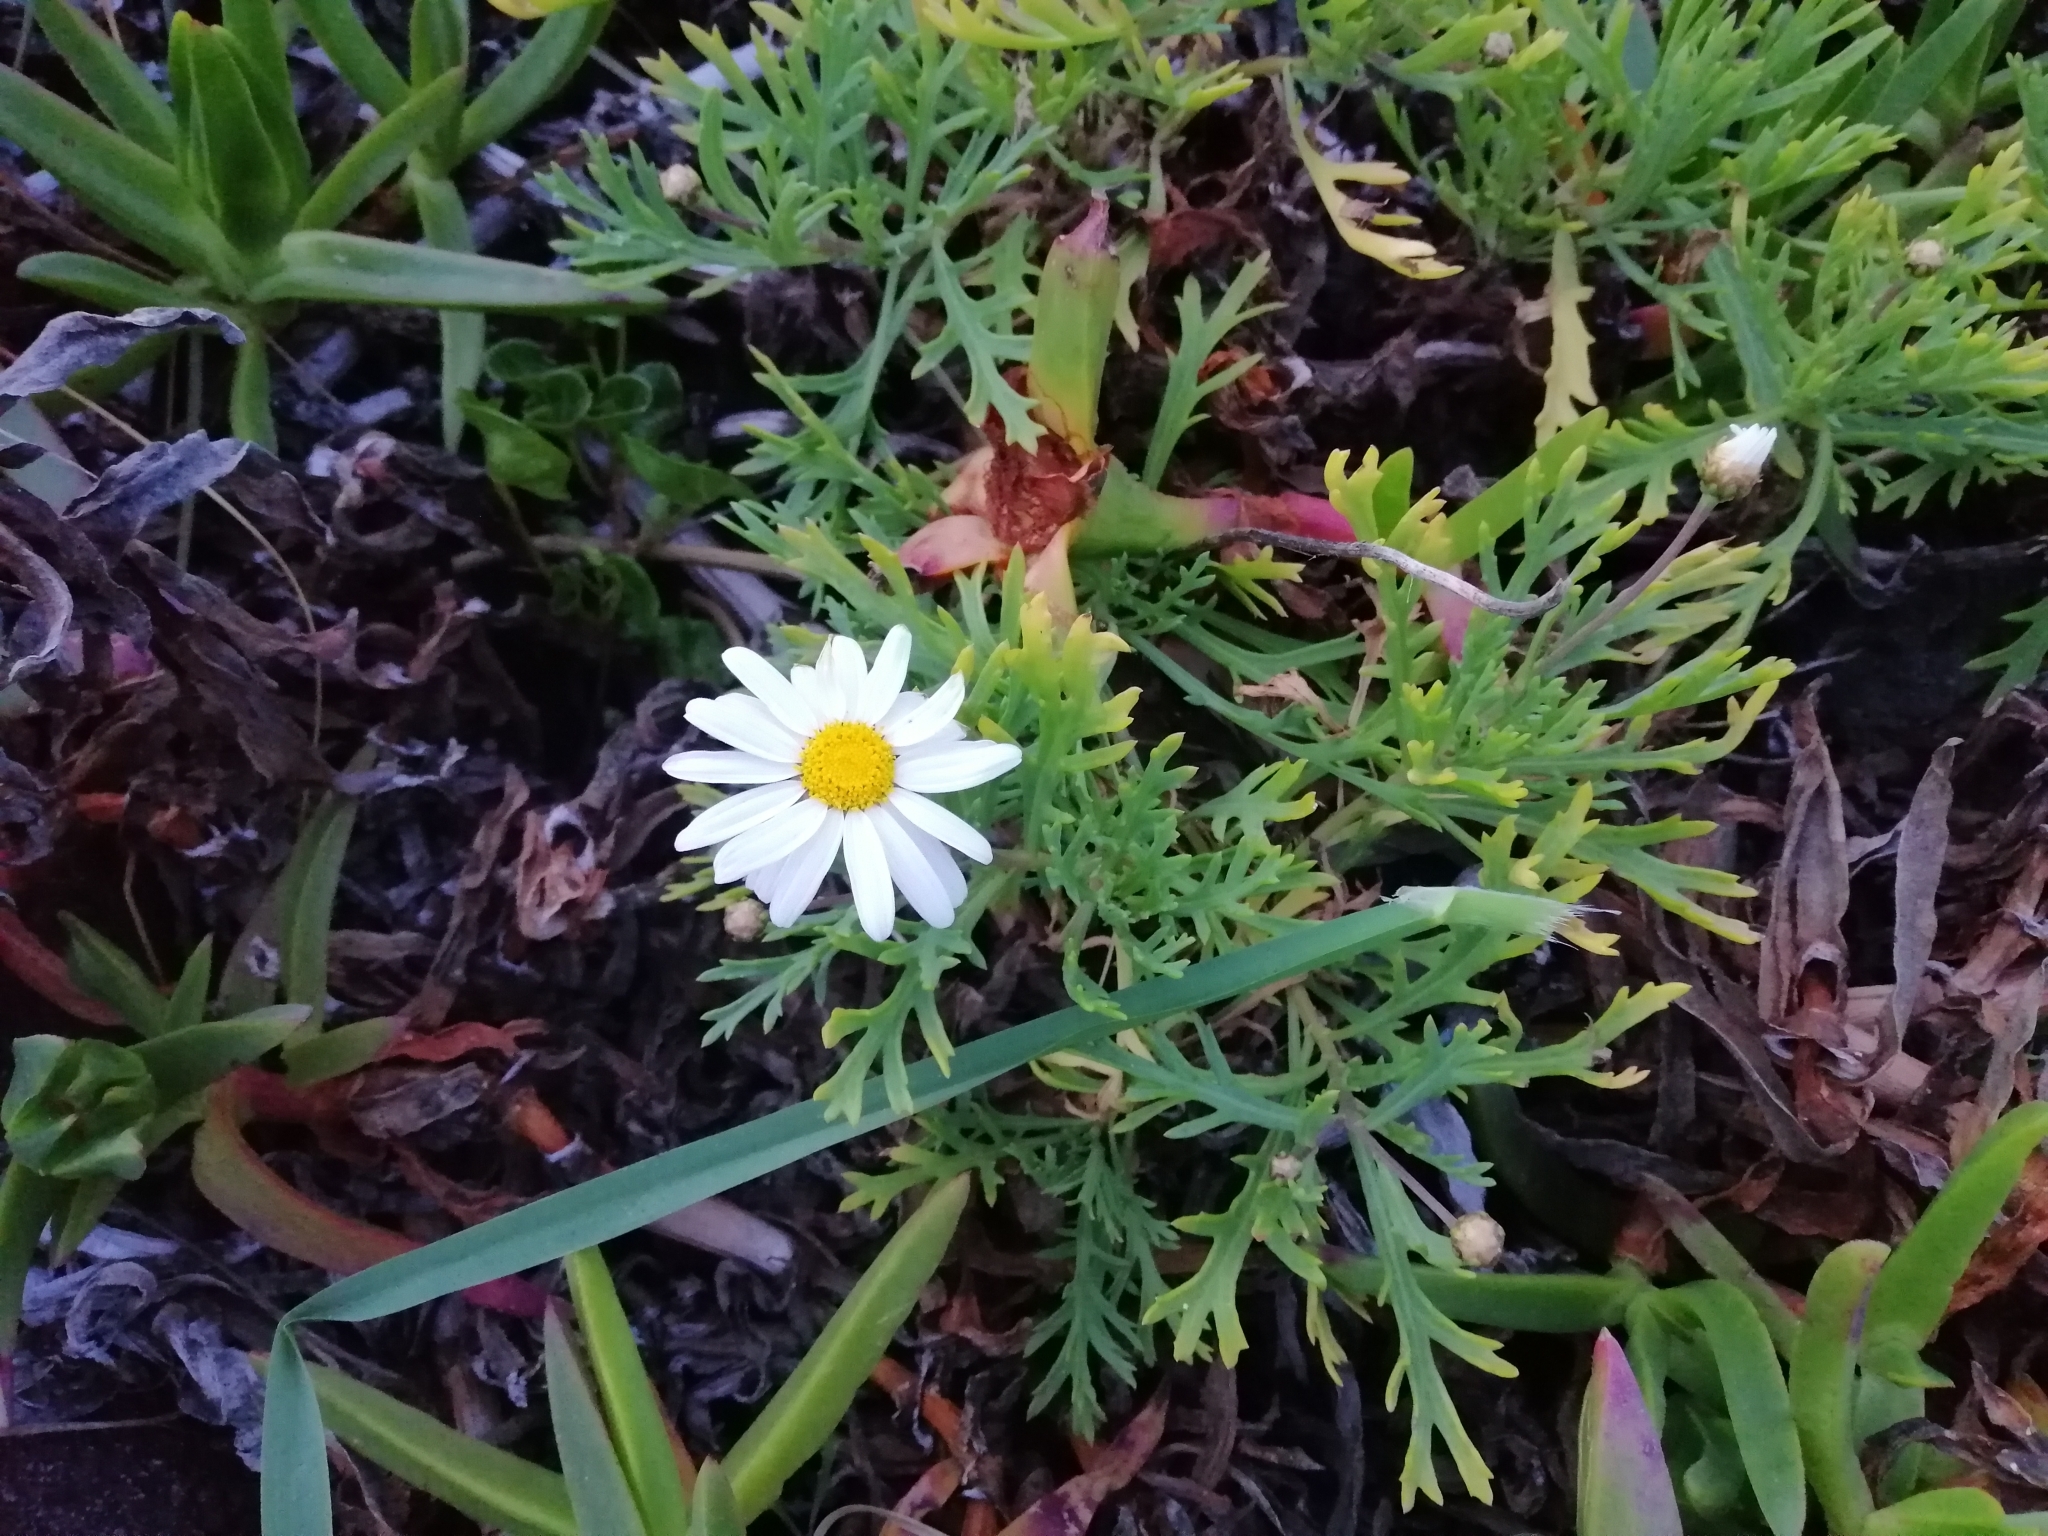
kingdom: Plantae
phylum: Tracheophyta
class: Magnoliopsida
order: Asterales
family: Asteraceae
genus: Argyranthemum
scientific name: Argyranthemum frutescens
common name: Paris daisy
